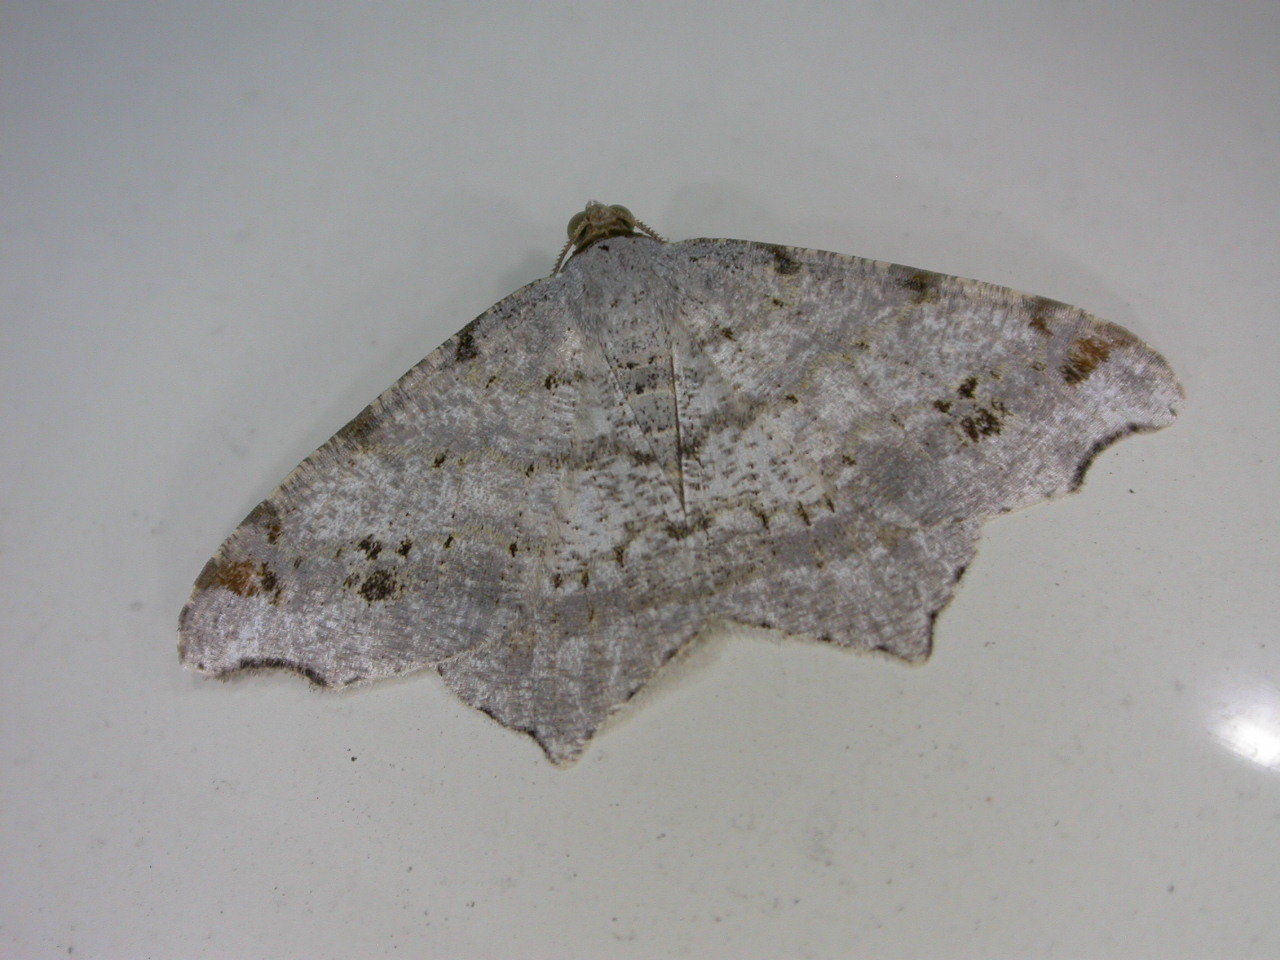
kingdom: Animalia
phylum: Arthropoda
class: Insecta
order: Lepidoptera
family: Geometridae
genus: Macaria
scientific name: Macaria alternata
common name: Sharp-angled peacock
